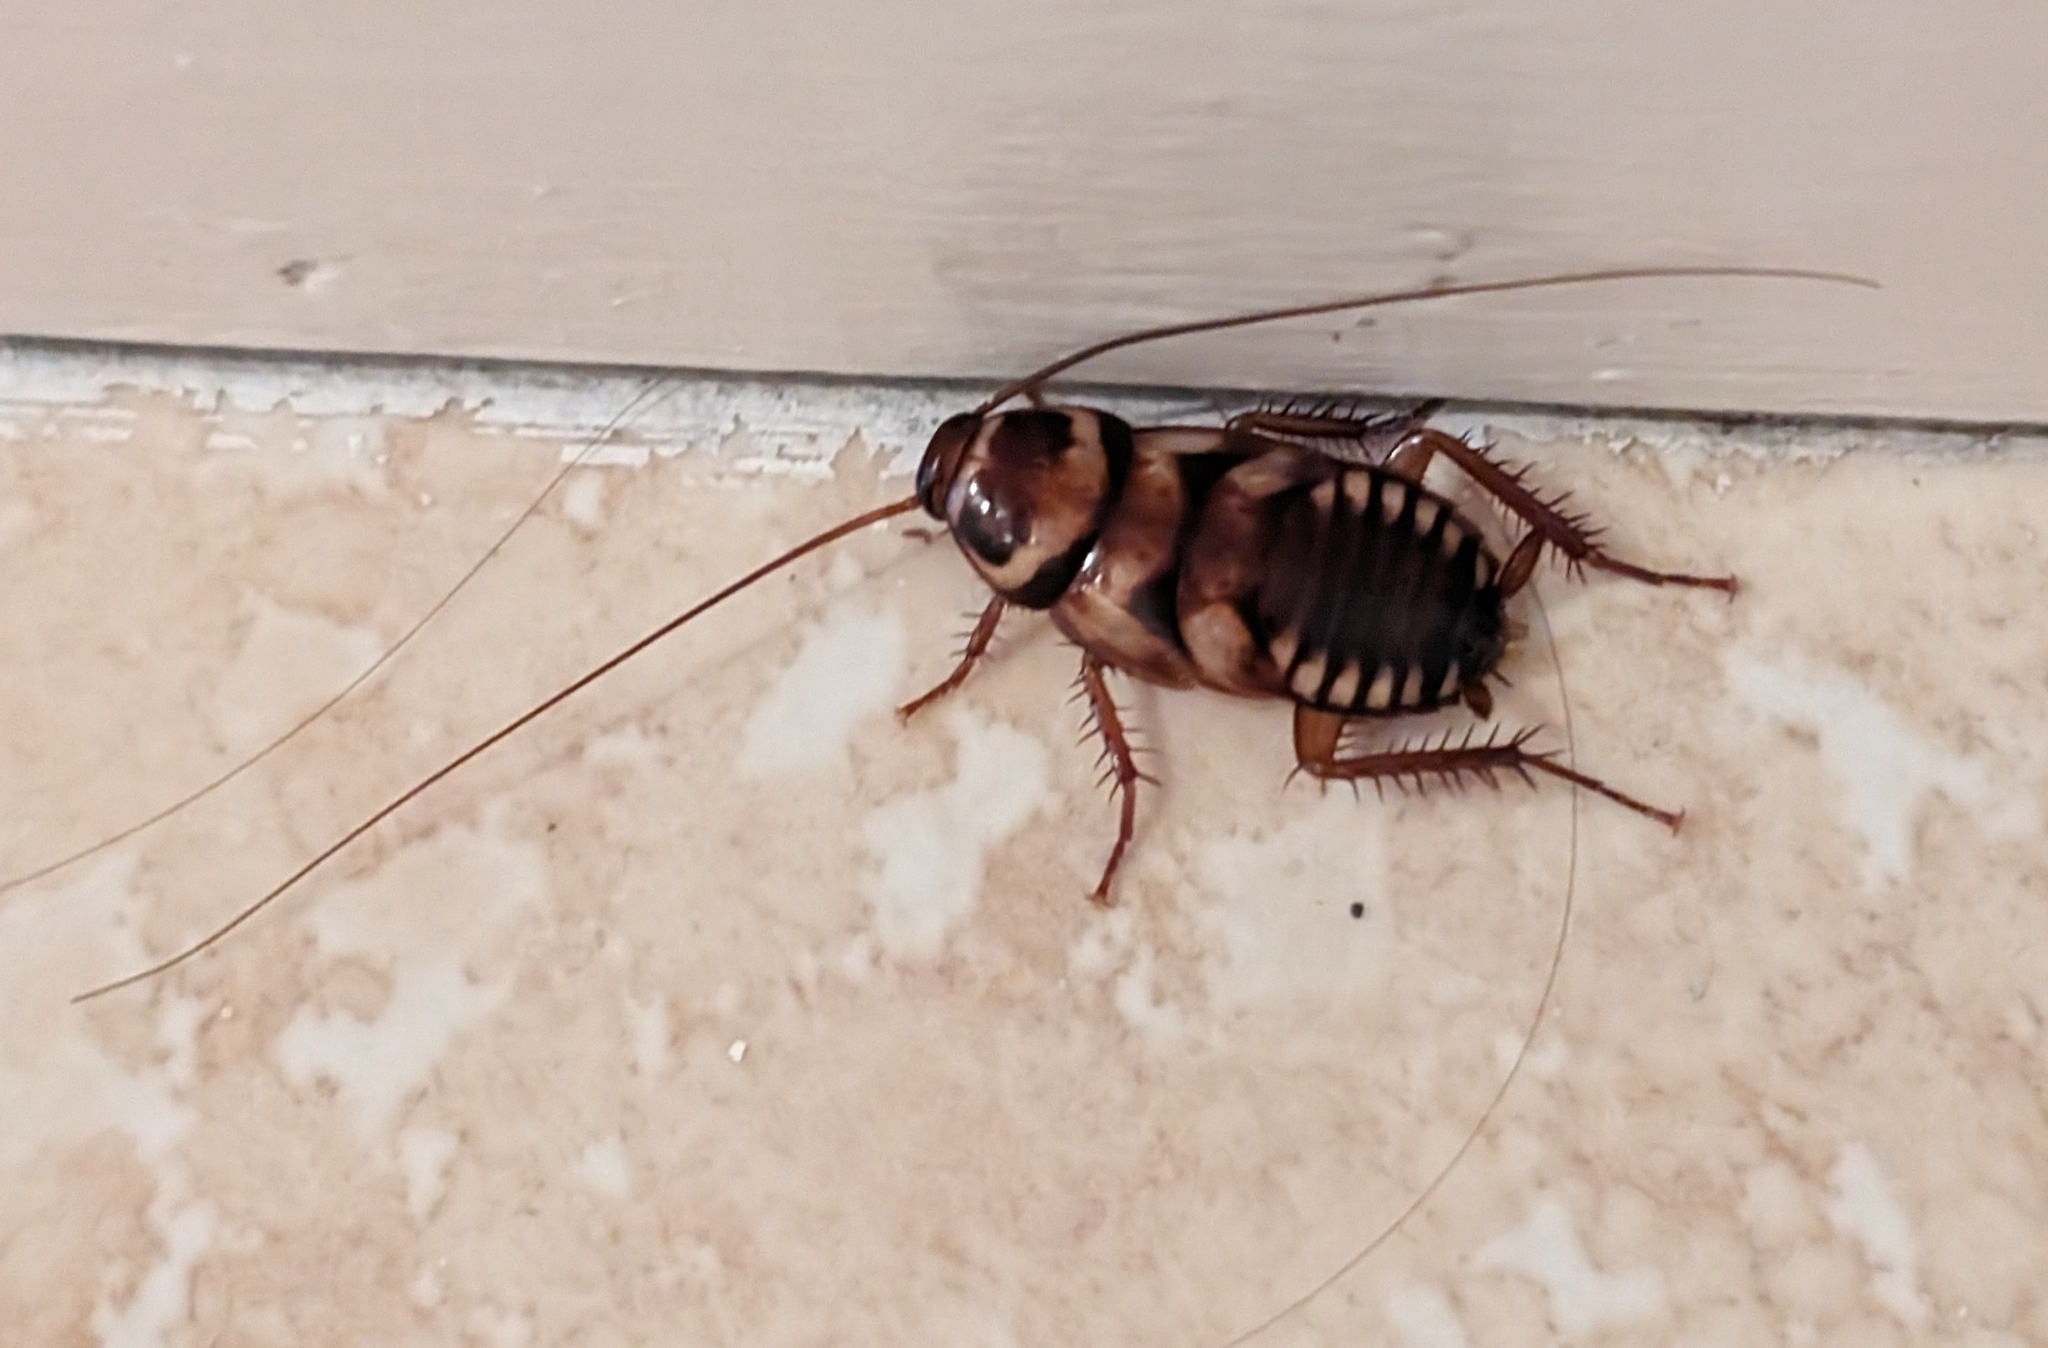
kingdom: Animalia
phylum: Arthropoda
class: Insecta
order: Blattodea
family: Blattidae
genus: Periplaneta
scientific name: Periplaneta australasiae
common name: Australian cockroach
